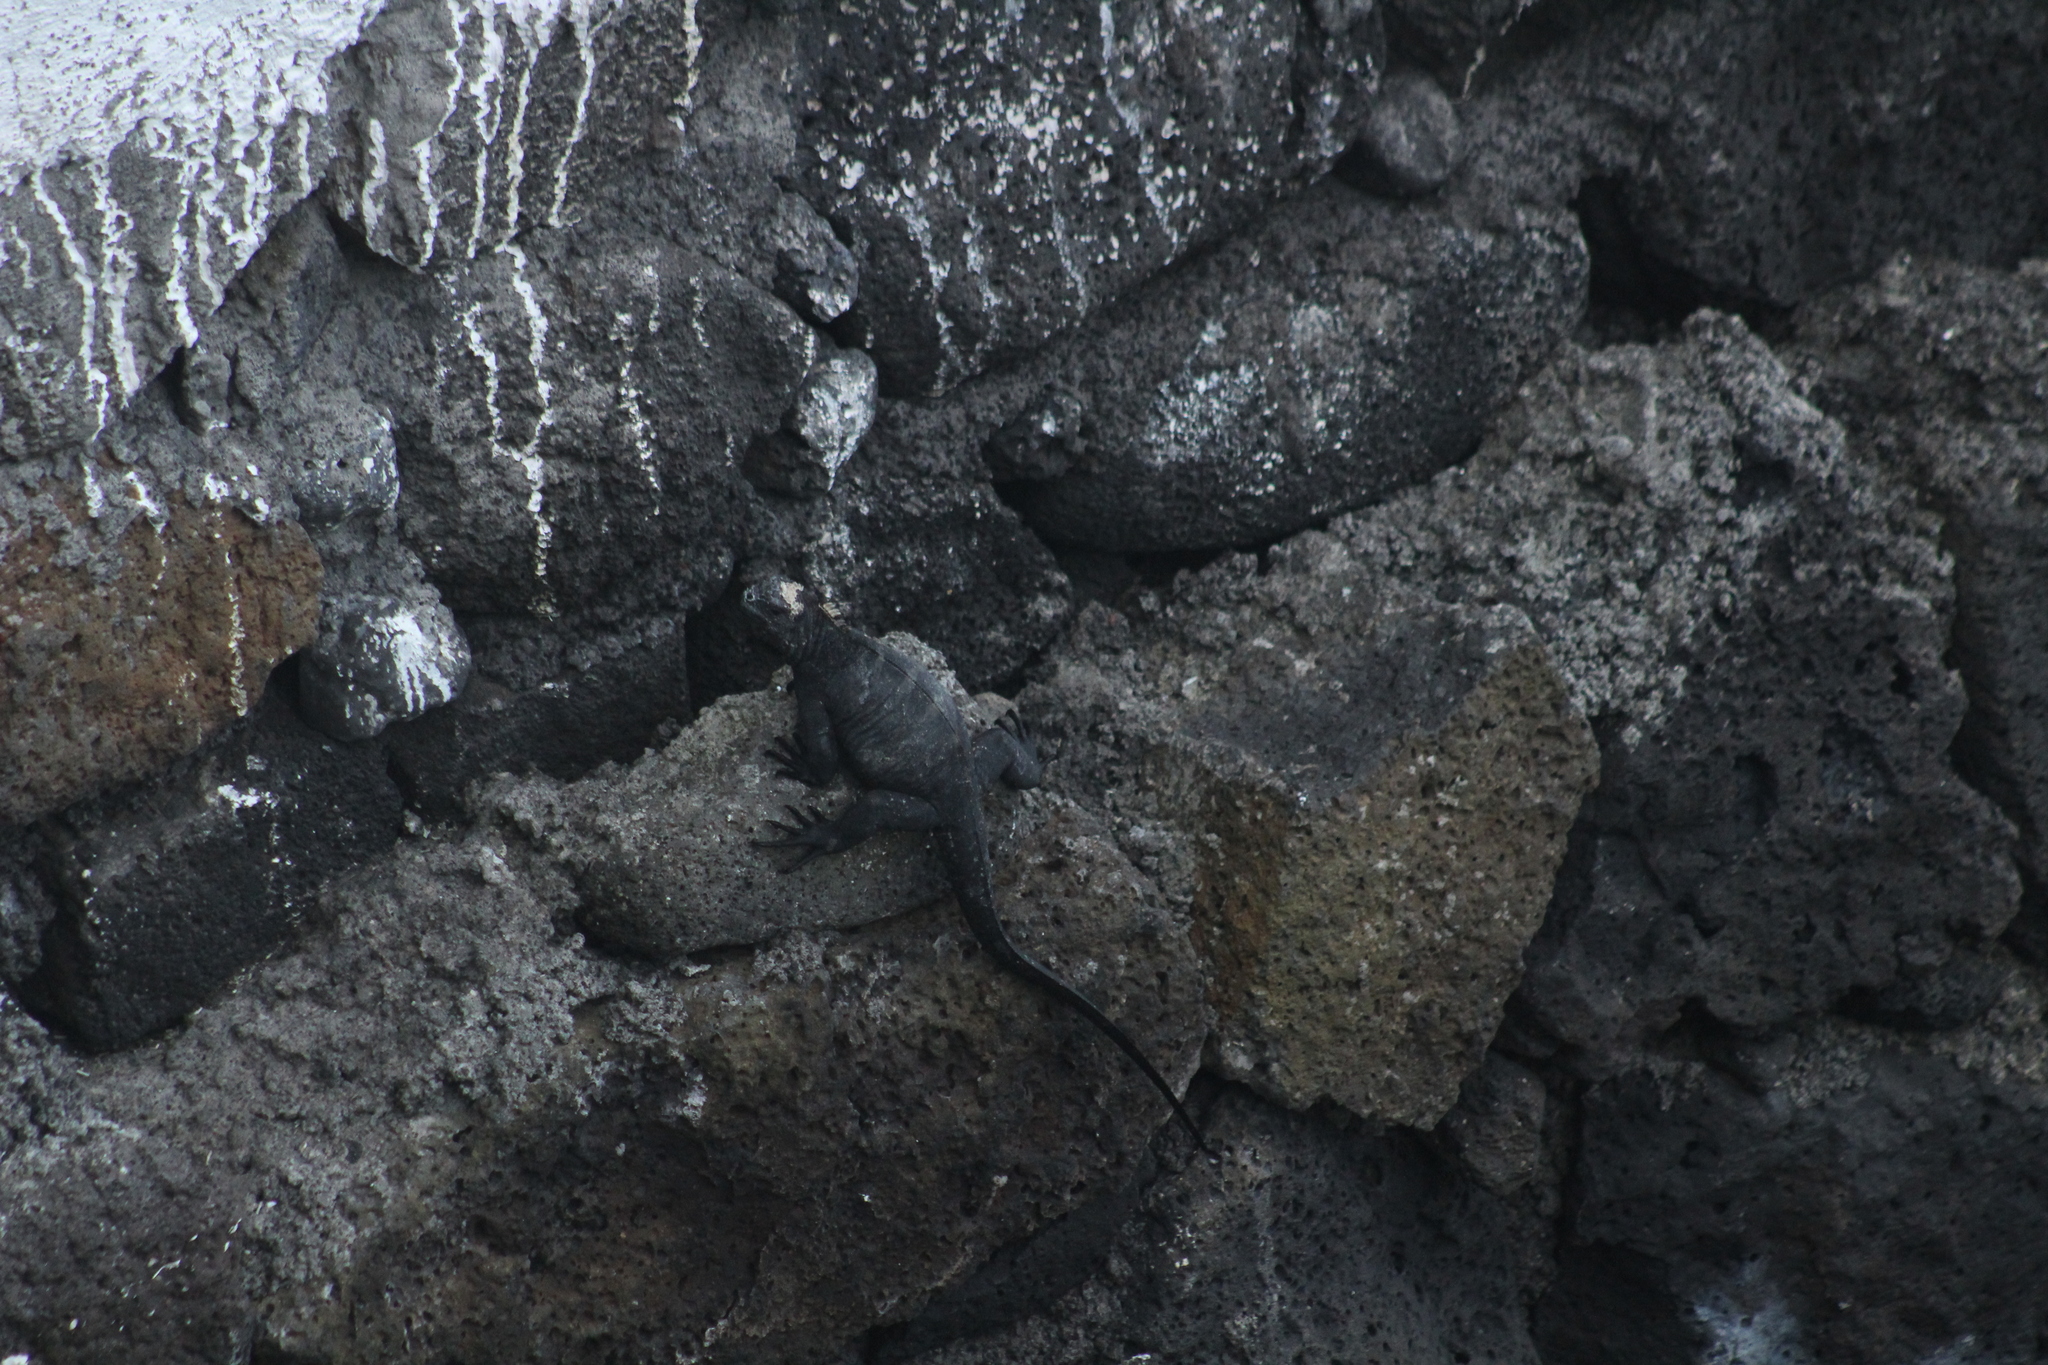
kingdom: Animalia
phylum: Chordata
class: Squamata
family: Iguanidae
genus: Amblyrhynchus
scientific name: Amblyrhynchus cristatus
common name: Marine iguana
